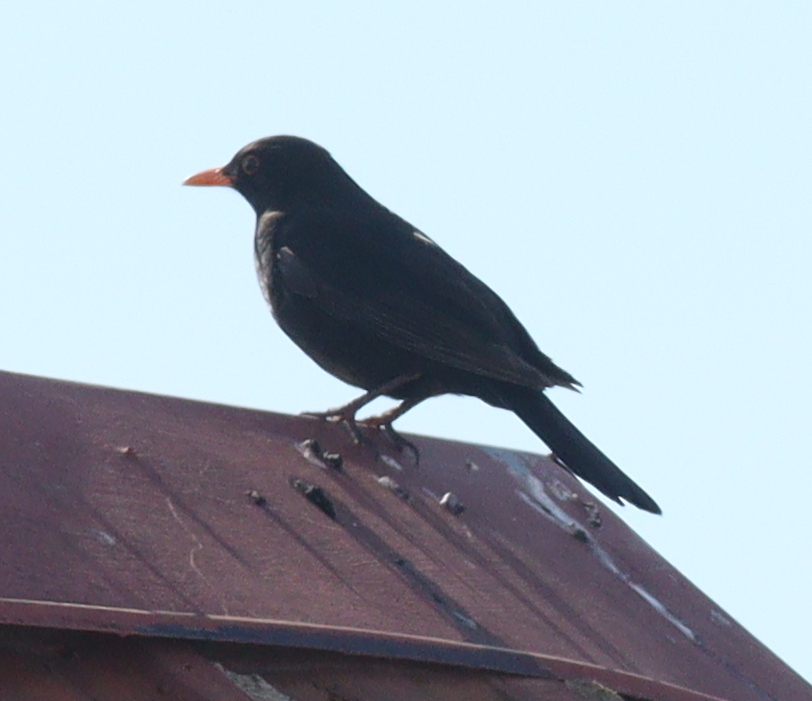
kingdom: Animalia
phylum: Chordata
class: Aves
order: Passeriformes
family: Turdidae
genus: Turdus
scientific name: Turdus merula
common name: Common blackbird
